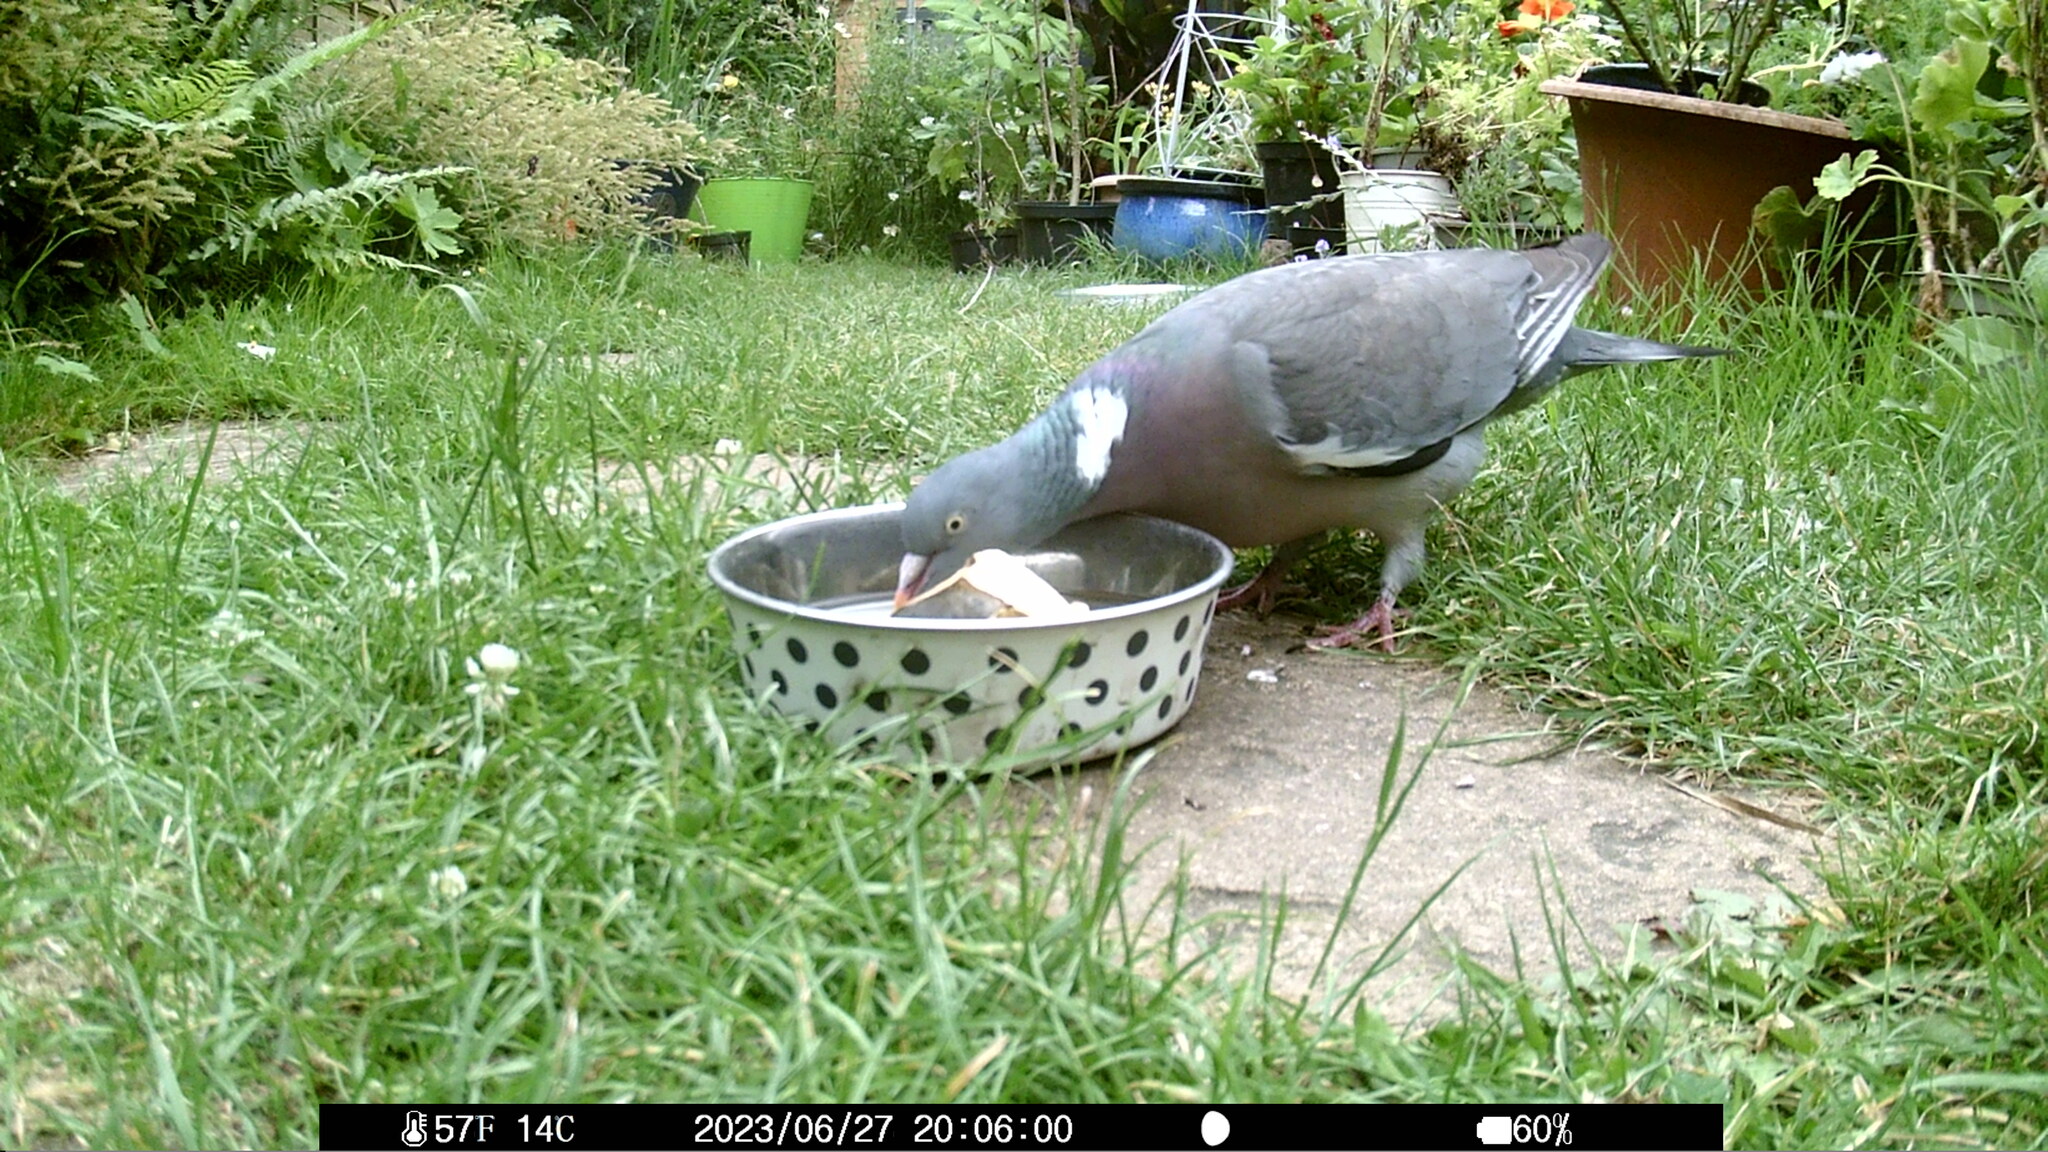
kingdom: Animalia
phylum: Chordata
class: Aves
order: Columbiformes
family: Columbidae
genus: Columba
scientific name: Columba palumbus
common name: Common wood pigeon
